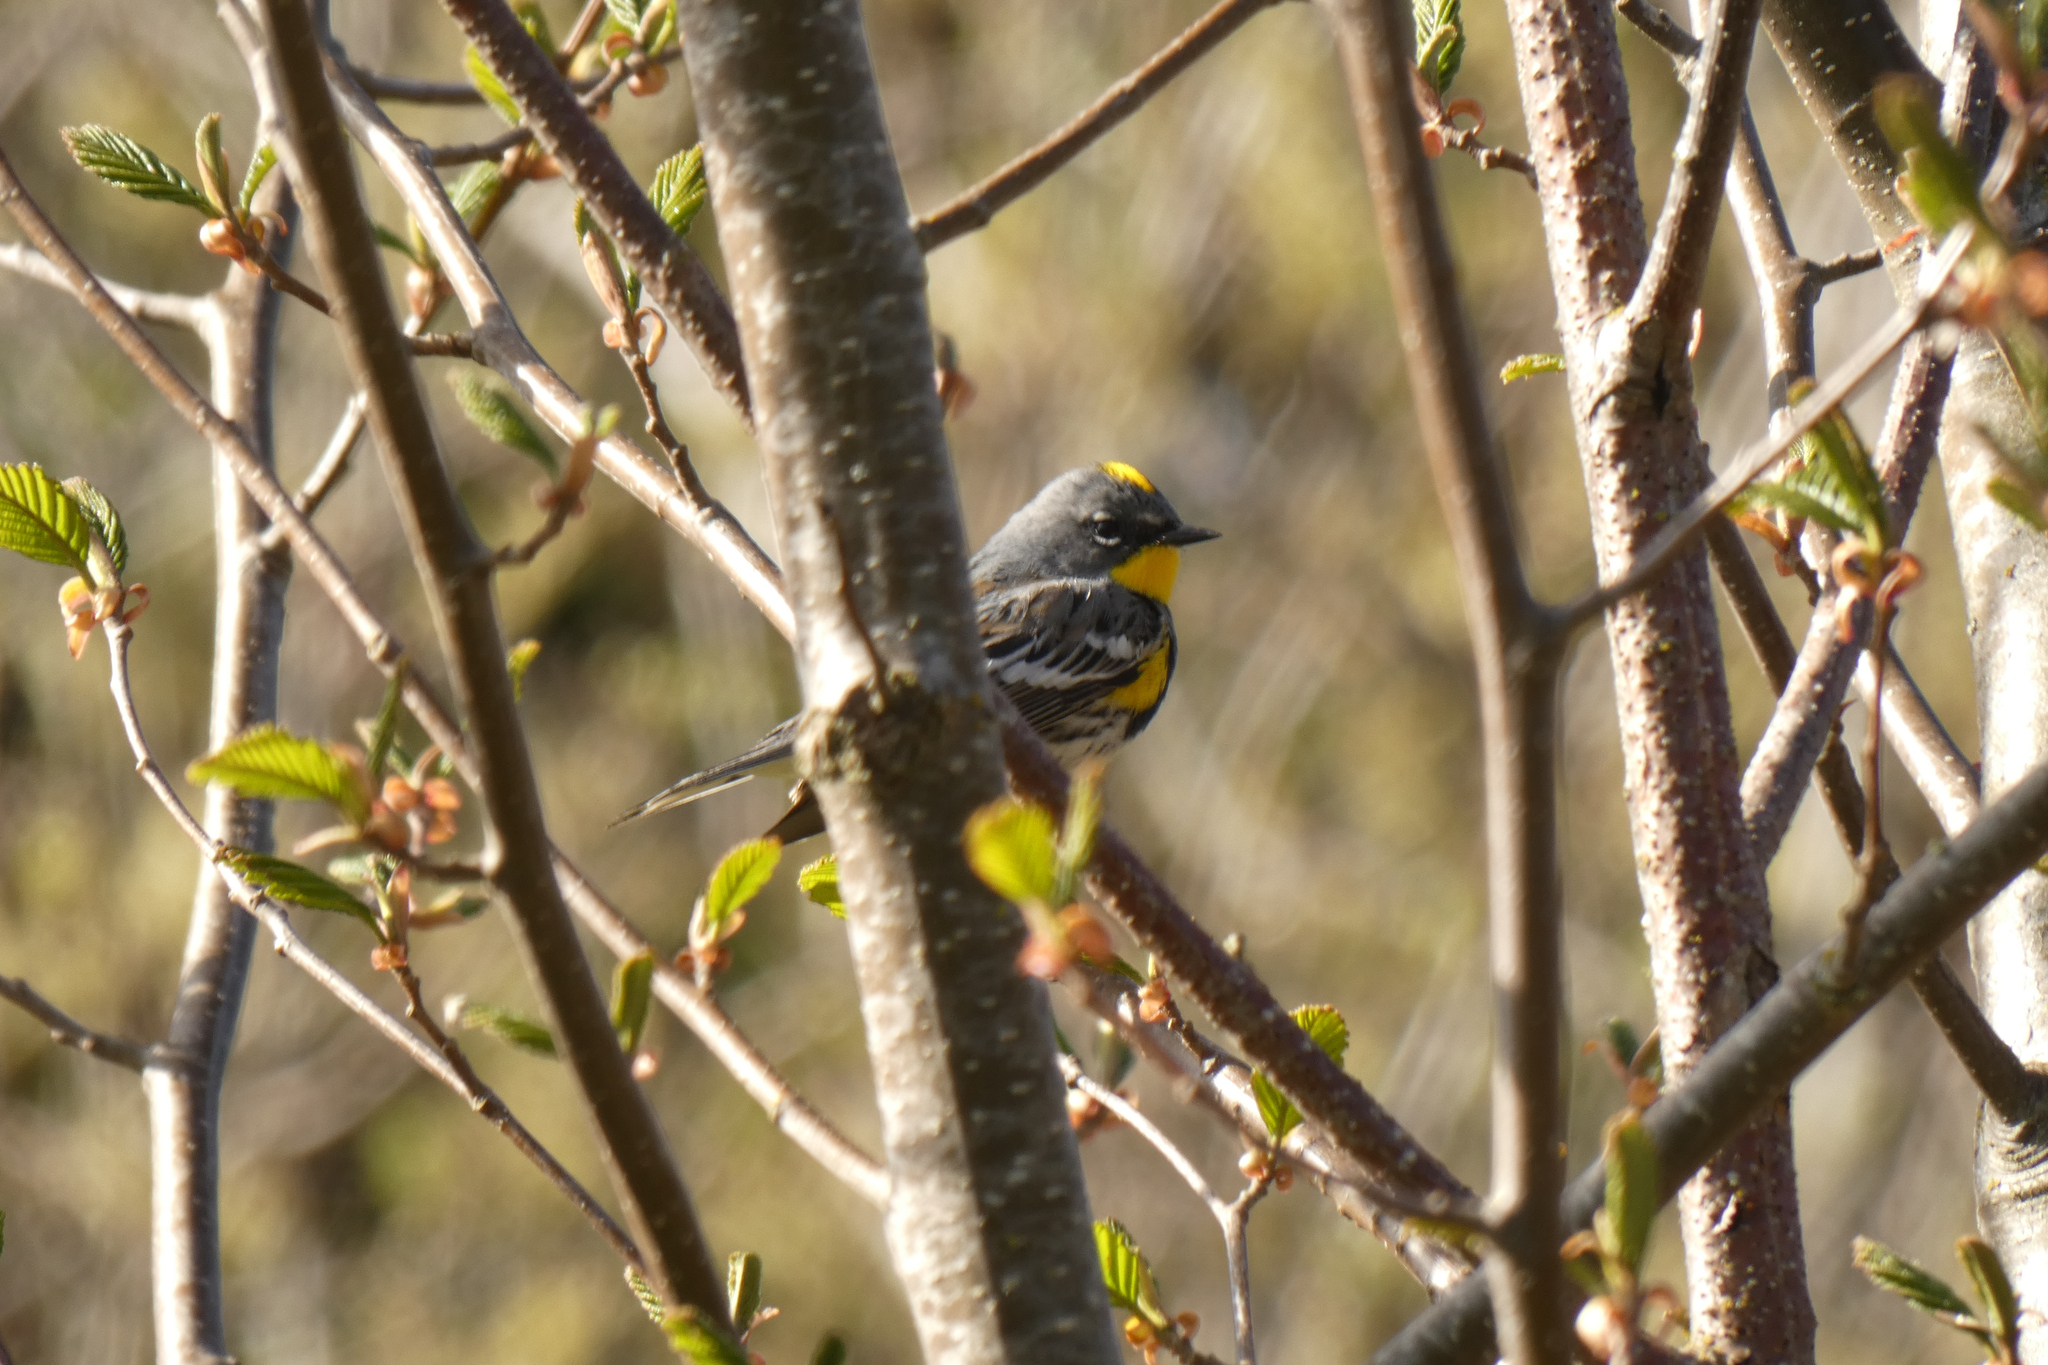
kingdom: Animalia
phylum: Chordata
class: Aves
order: Passeriformes
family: Parulidae
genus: Setophaga
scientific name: Setophaga coronata
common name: Myrtle warbler
